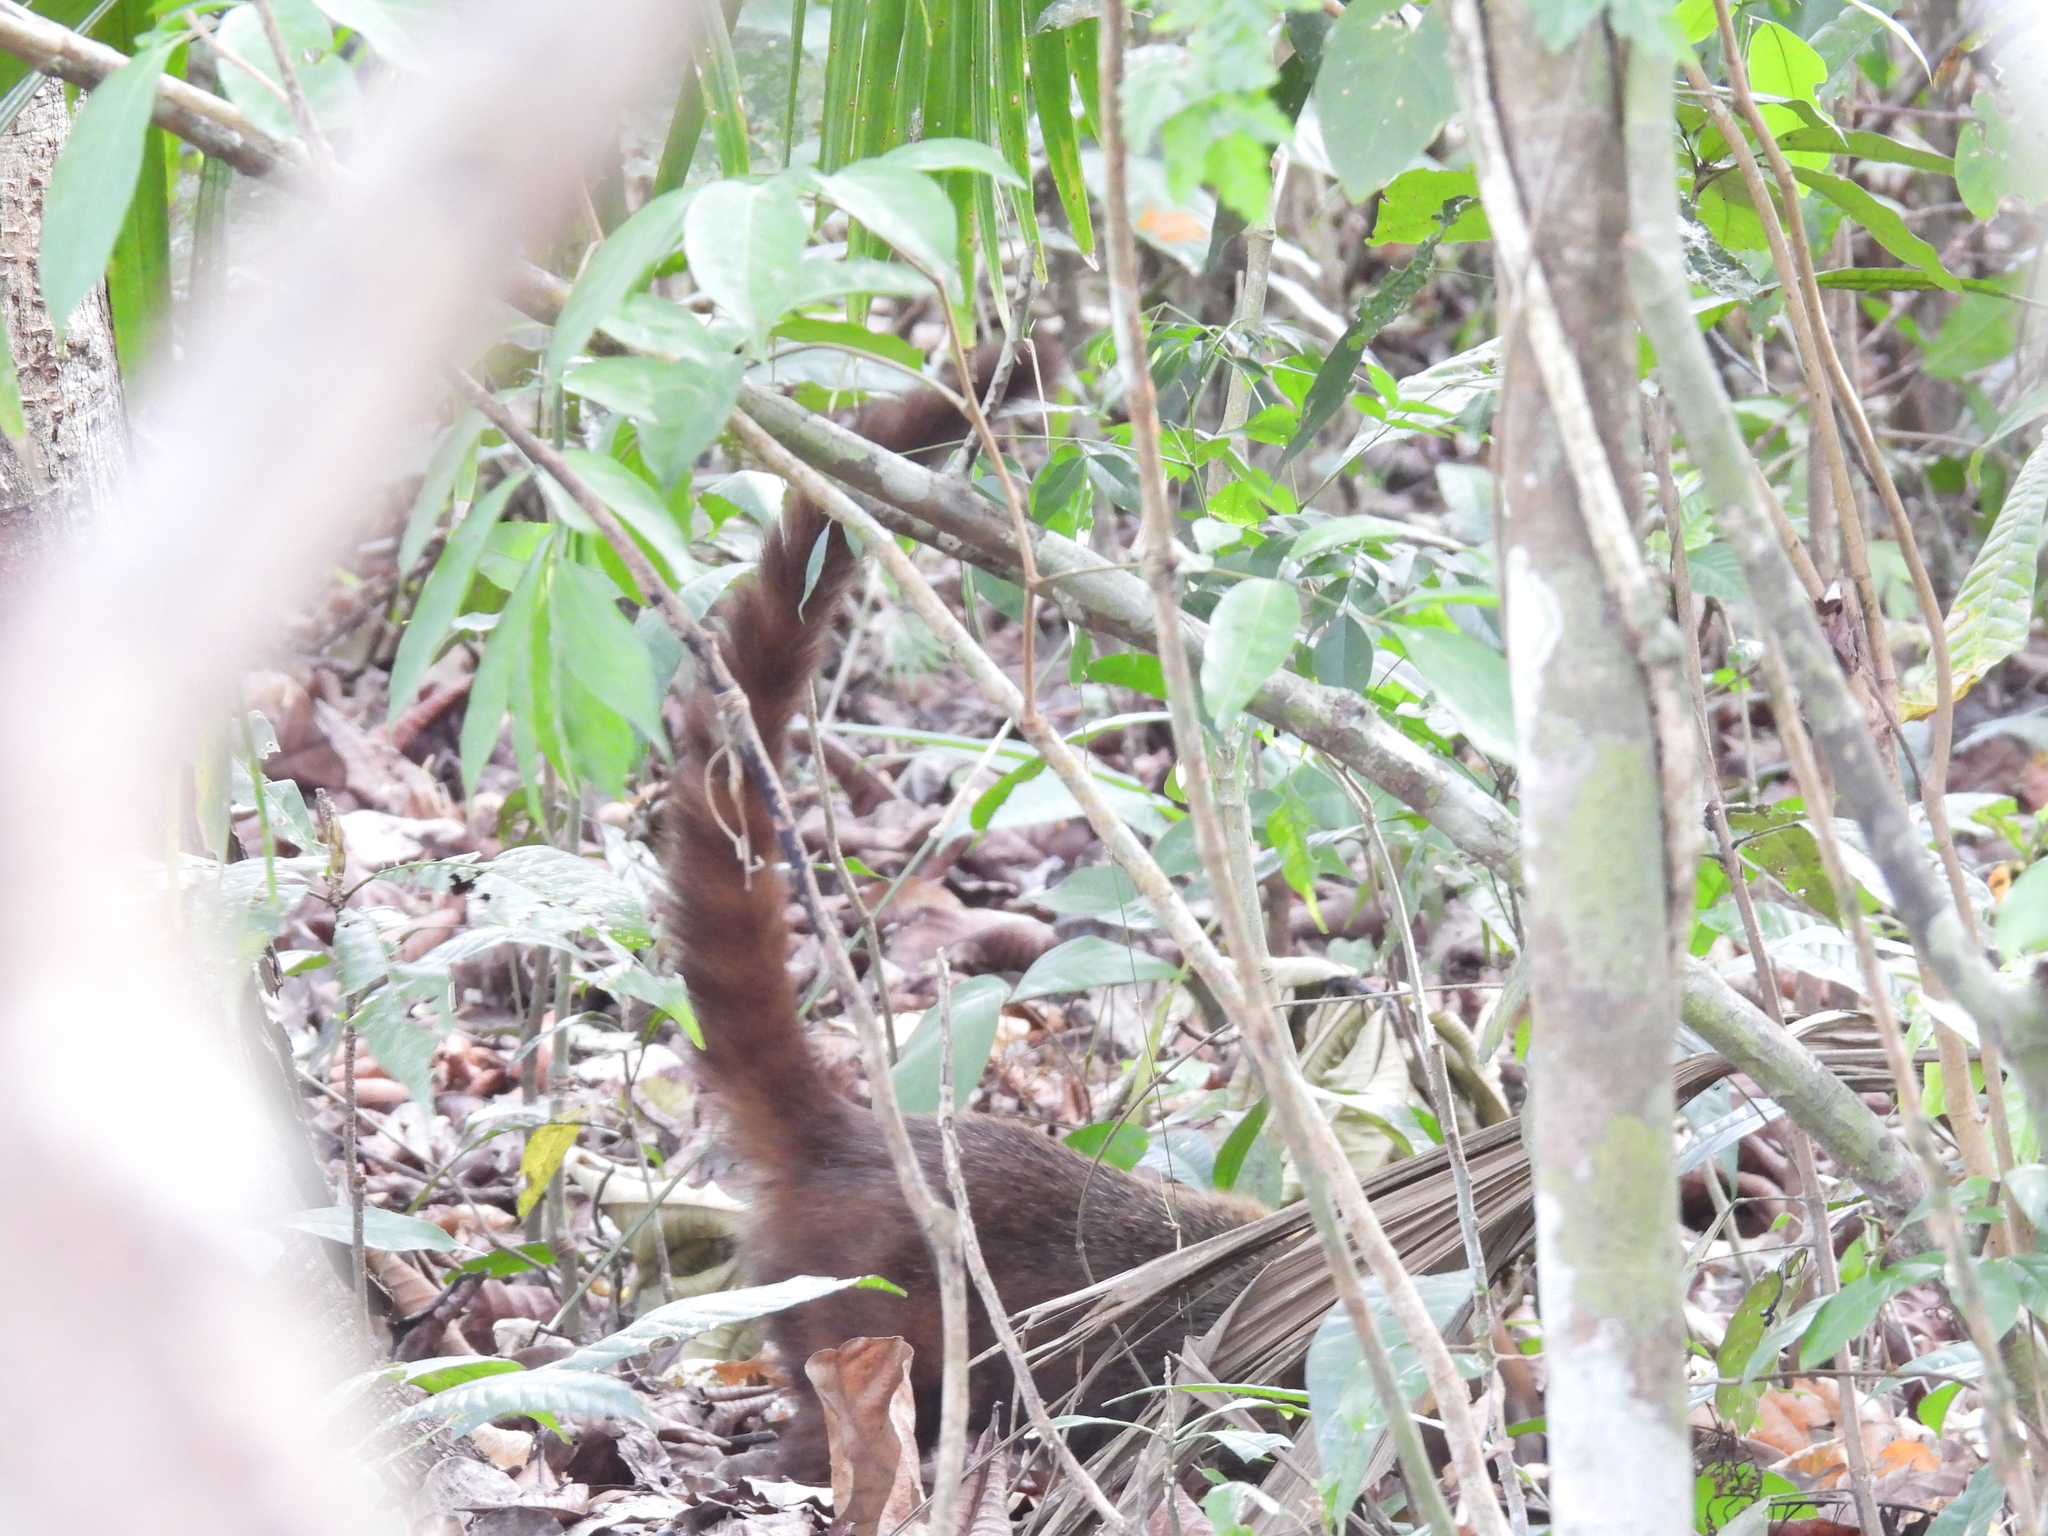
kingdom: Animalia
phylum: Chordata
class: Mammalia
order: Carnivora
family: Procyonidae
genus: Nasua
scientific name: Nasua narica
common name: White-nosed coati
